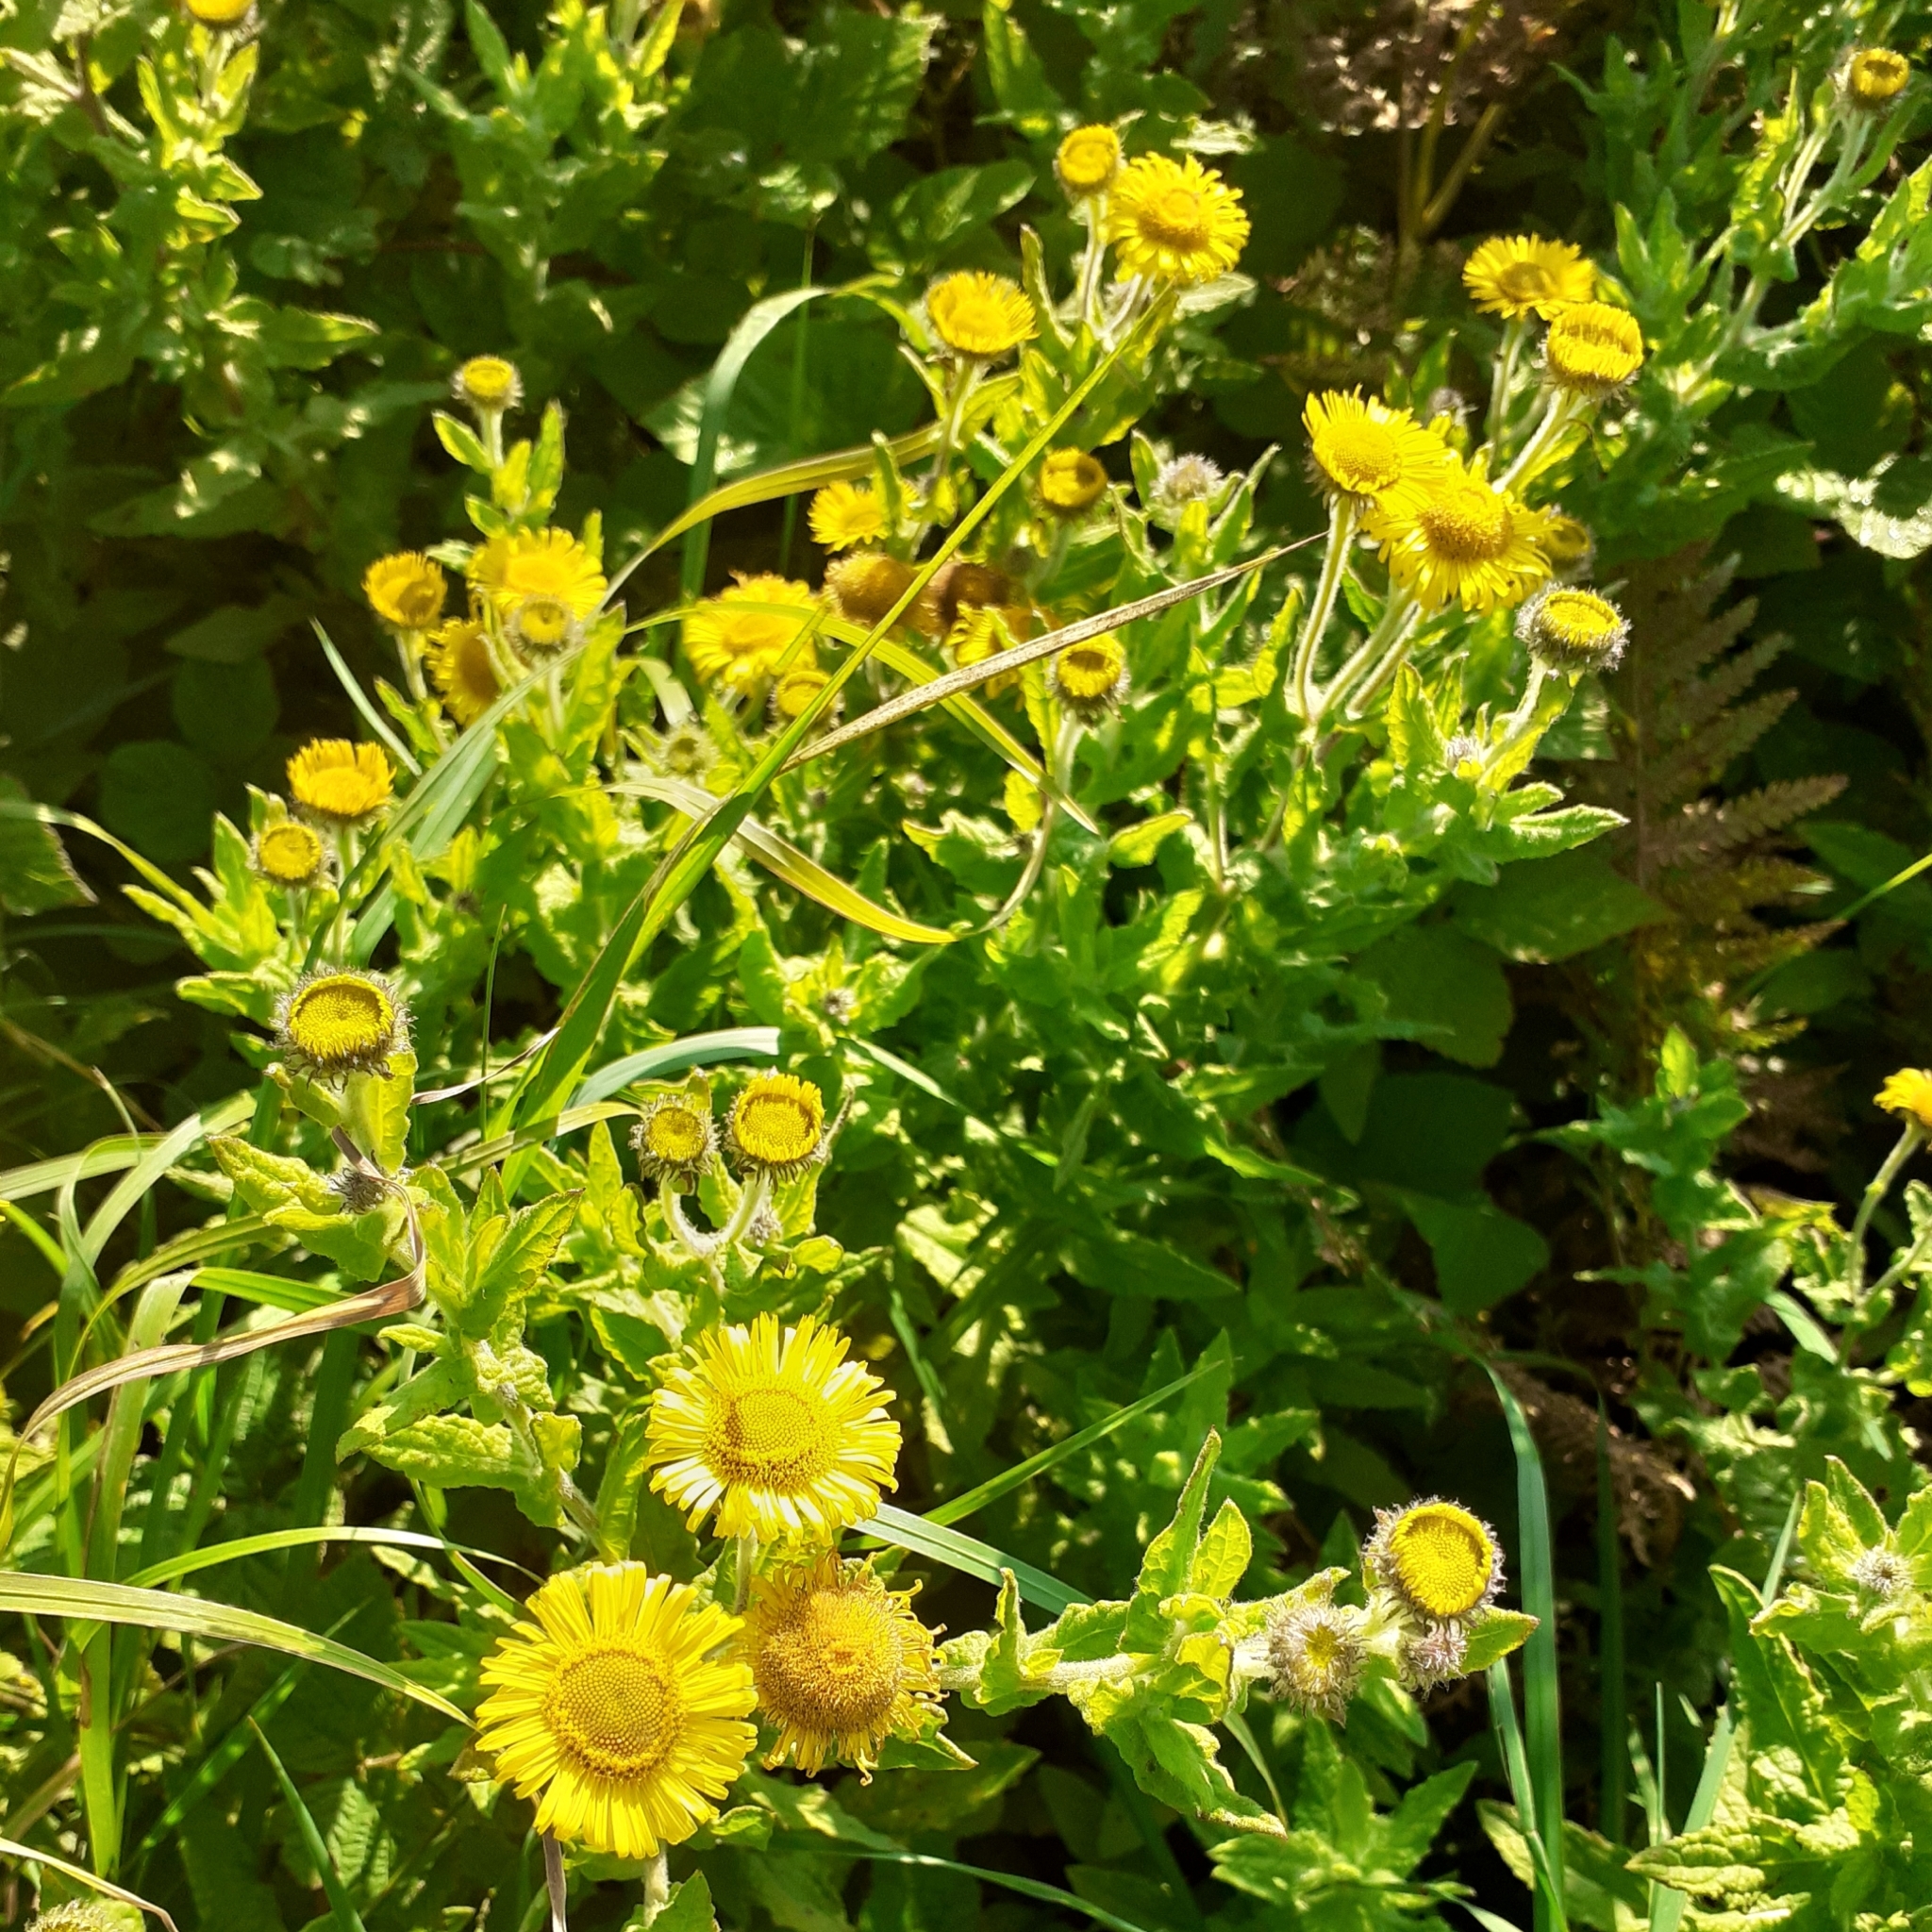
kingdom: Plantae
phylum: Tracheophyta
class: Magnoliopsida
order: Asterales
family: Asteraceae
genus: Pulicaria
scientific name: Pulicaria dysenterica
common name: Common fleabane
